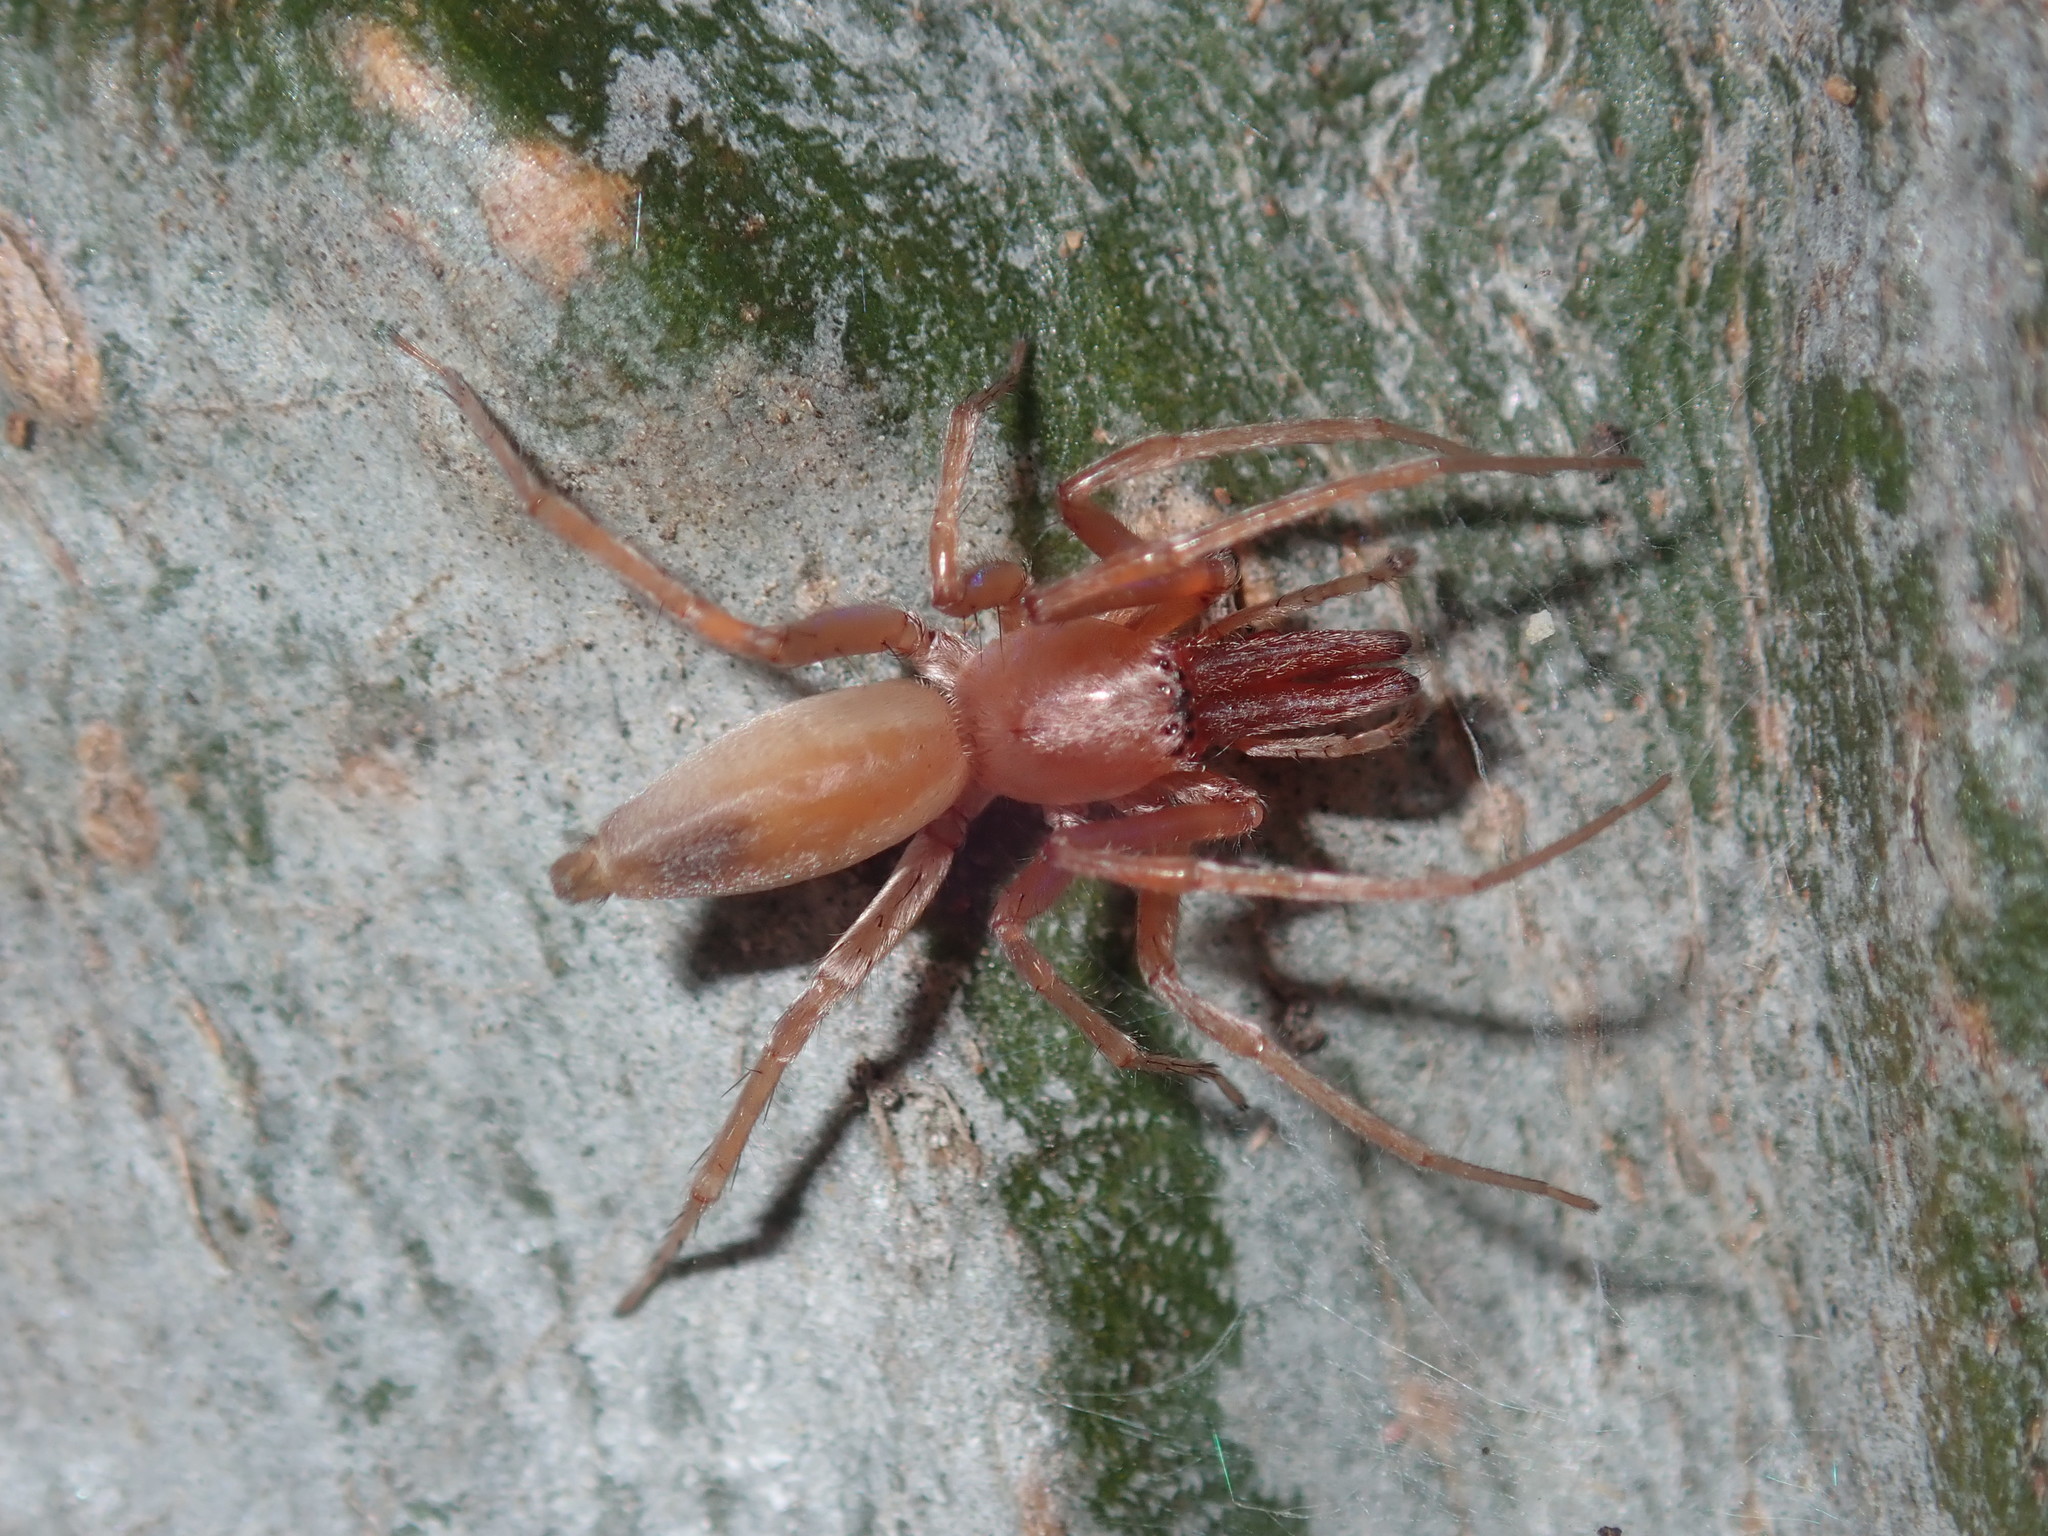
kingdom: Animalia
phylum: Arthropoda
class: Arachnida
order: Araneae
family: Clubionidae
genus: Clubiona
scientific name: Clubiona cycladata
